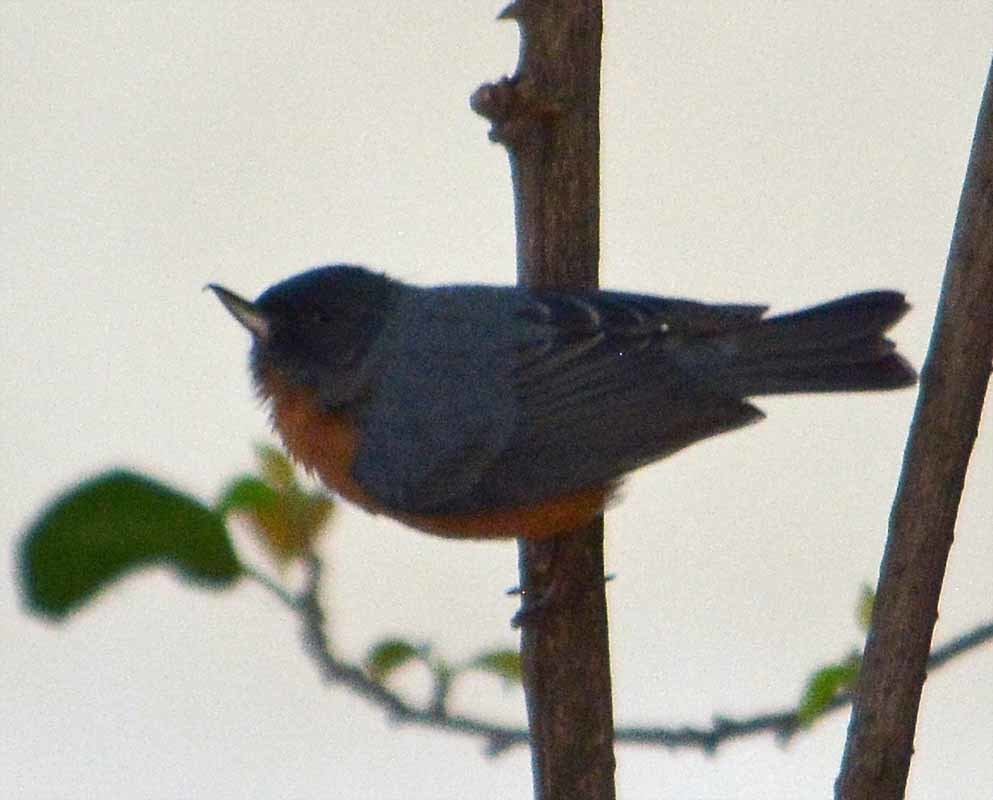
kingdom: Animalia
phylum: Chordata
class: Aves
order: Passeriformes
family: Thraupidae
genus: Diglossa
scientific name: Diglossa baritula
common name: Cinnamon-bellied flowerpiercer
